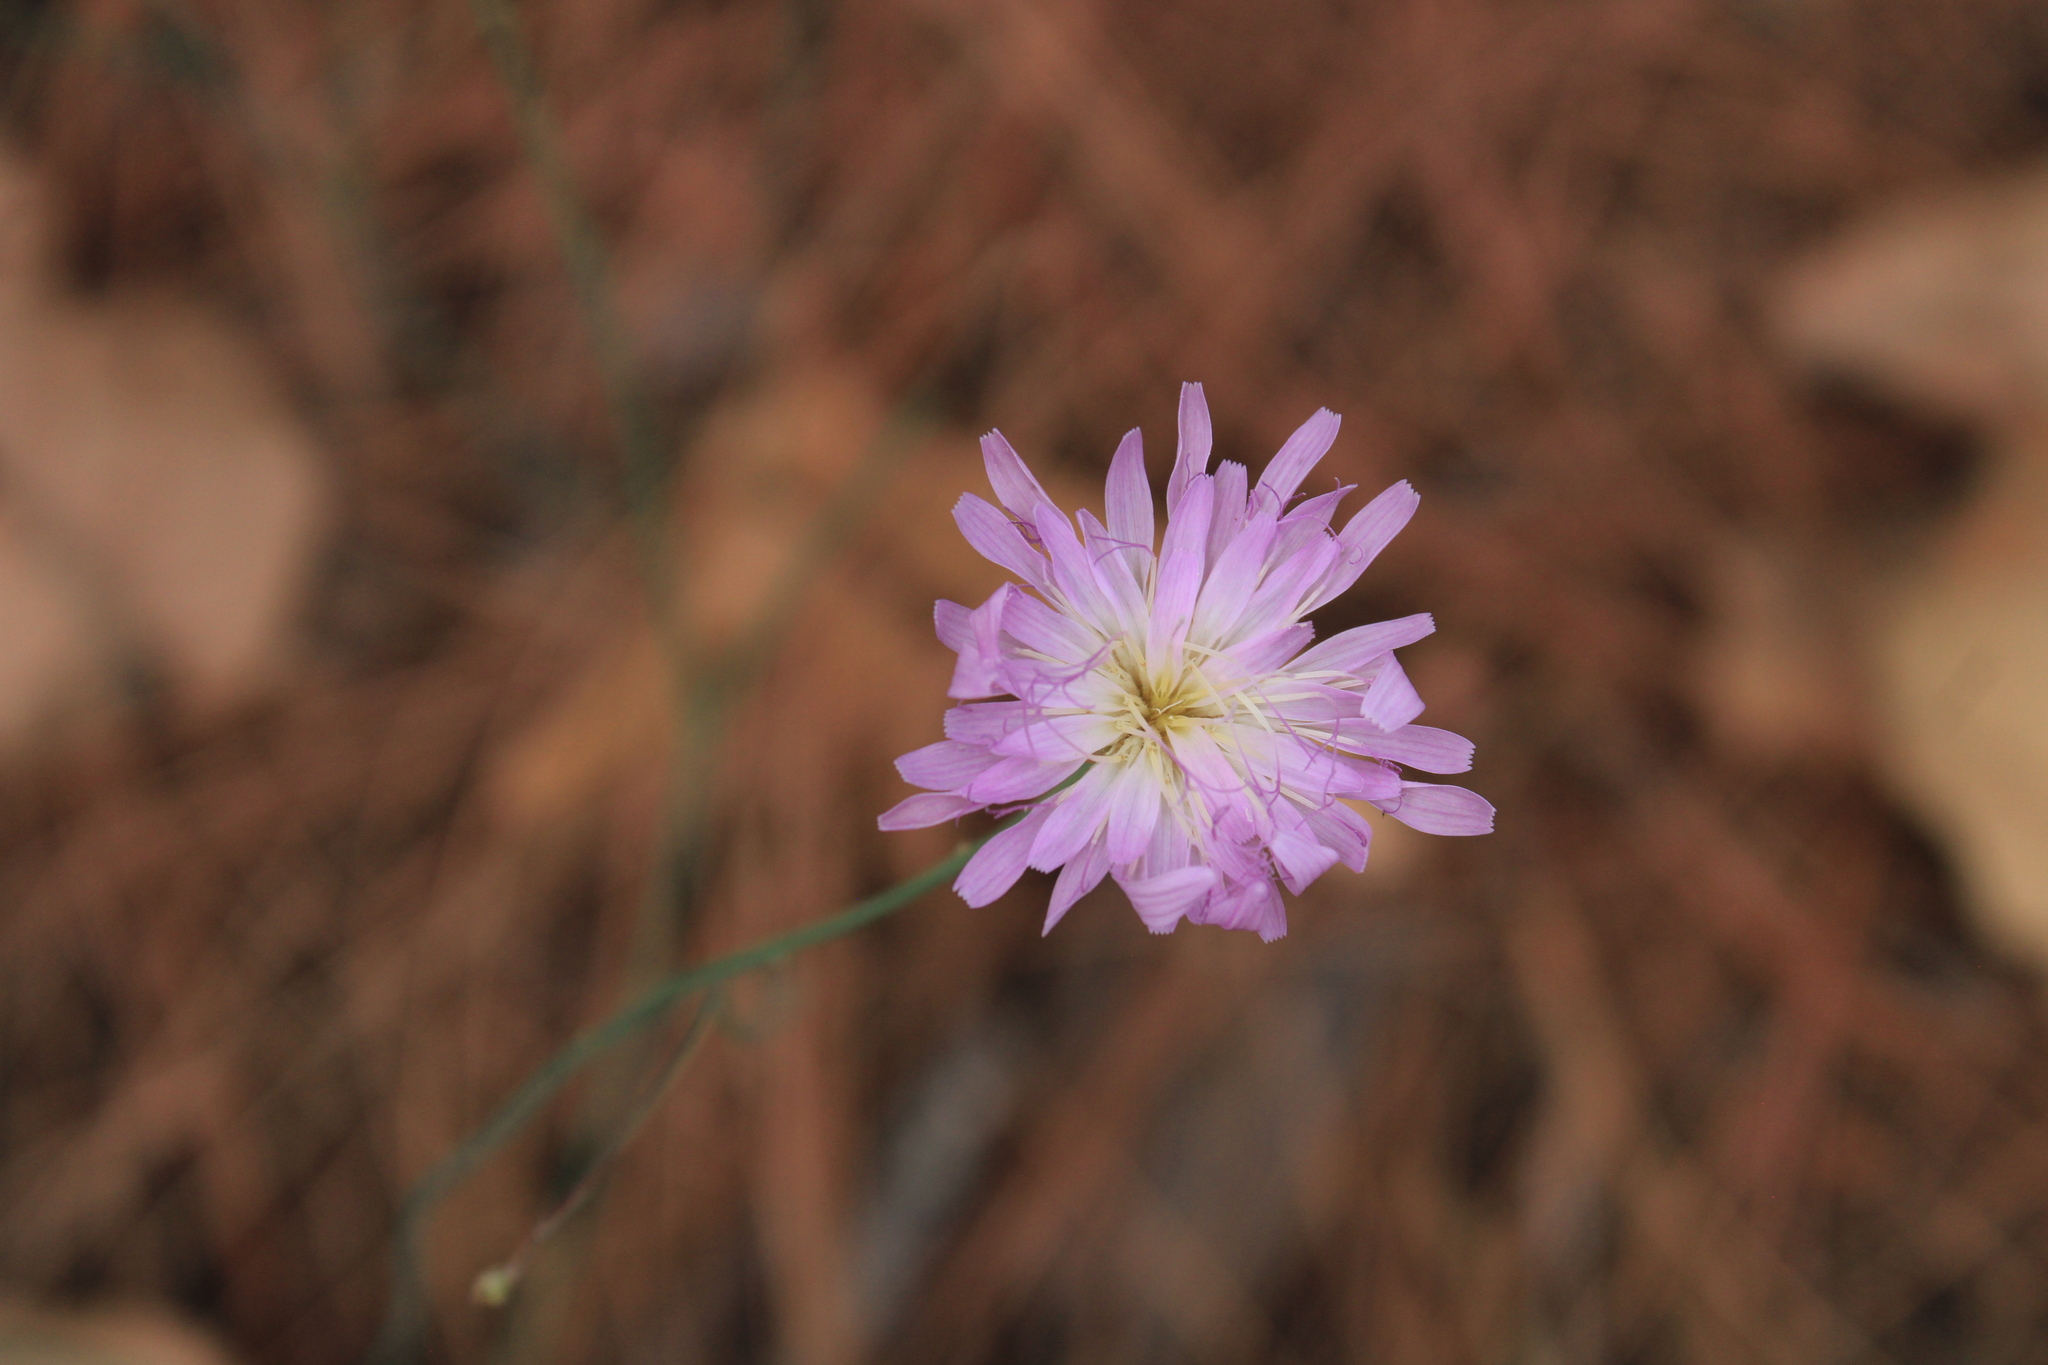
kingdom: Plantae
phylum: Tracheophyta
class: Magnoliopsida
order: Asterales
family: Asteraceae
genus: Pinaropappus
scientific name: Pinaropappus roseus
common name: Rock-lettuce
